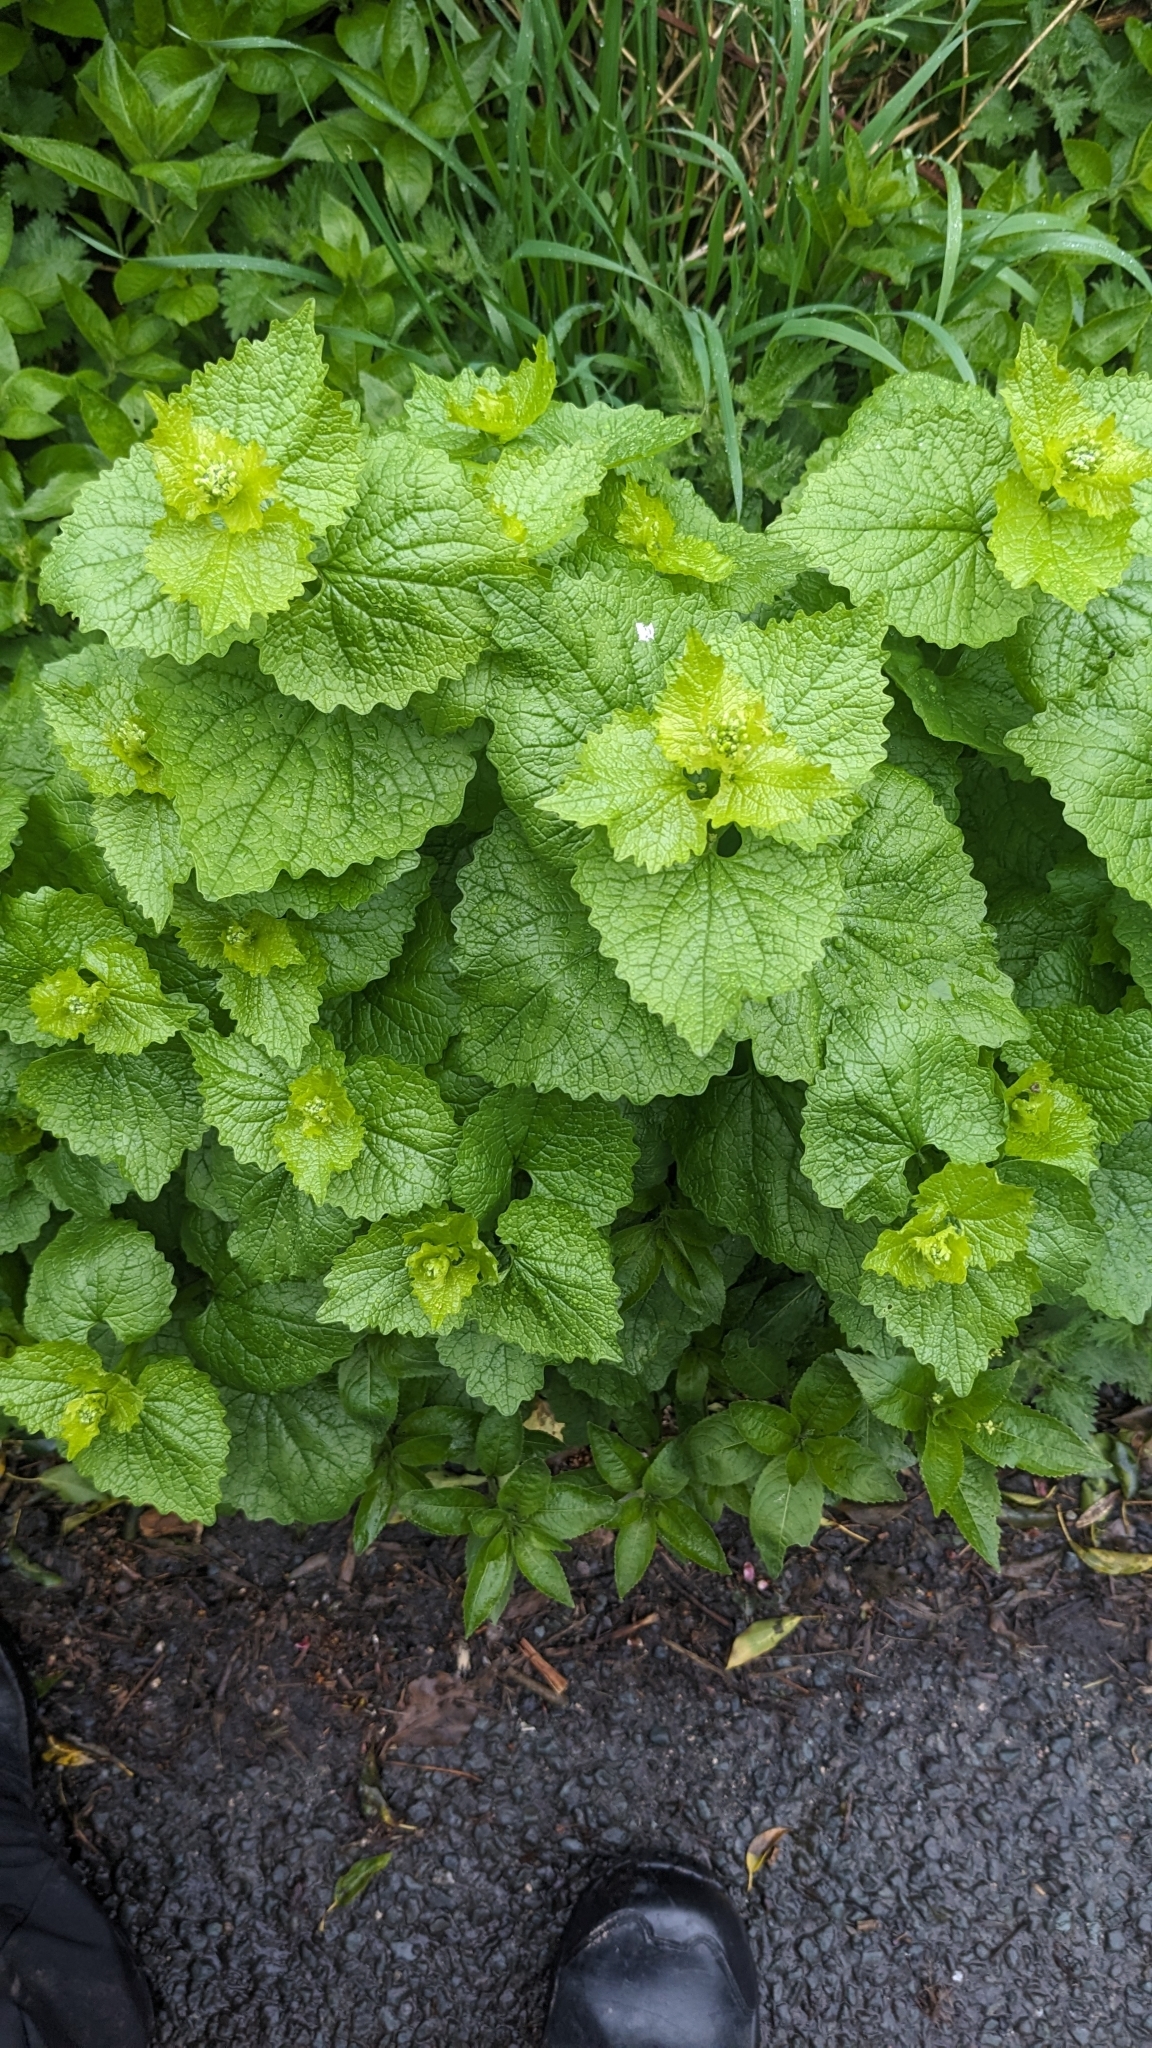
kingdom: Plantae
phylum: Tracheophyta
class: Magnoliopsida
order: Brassicales
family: Brassicaceae
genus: Alliaria
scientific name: Alliaria petiolata
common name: Garlic mustard
